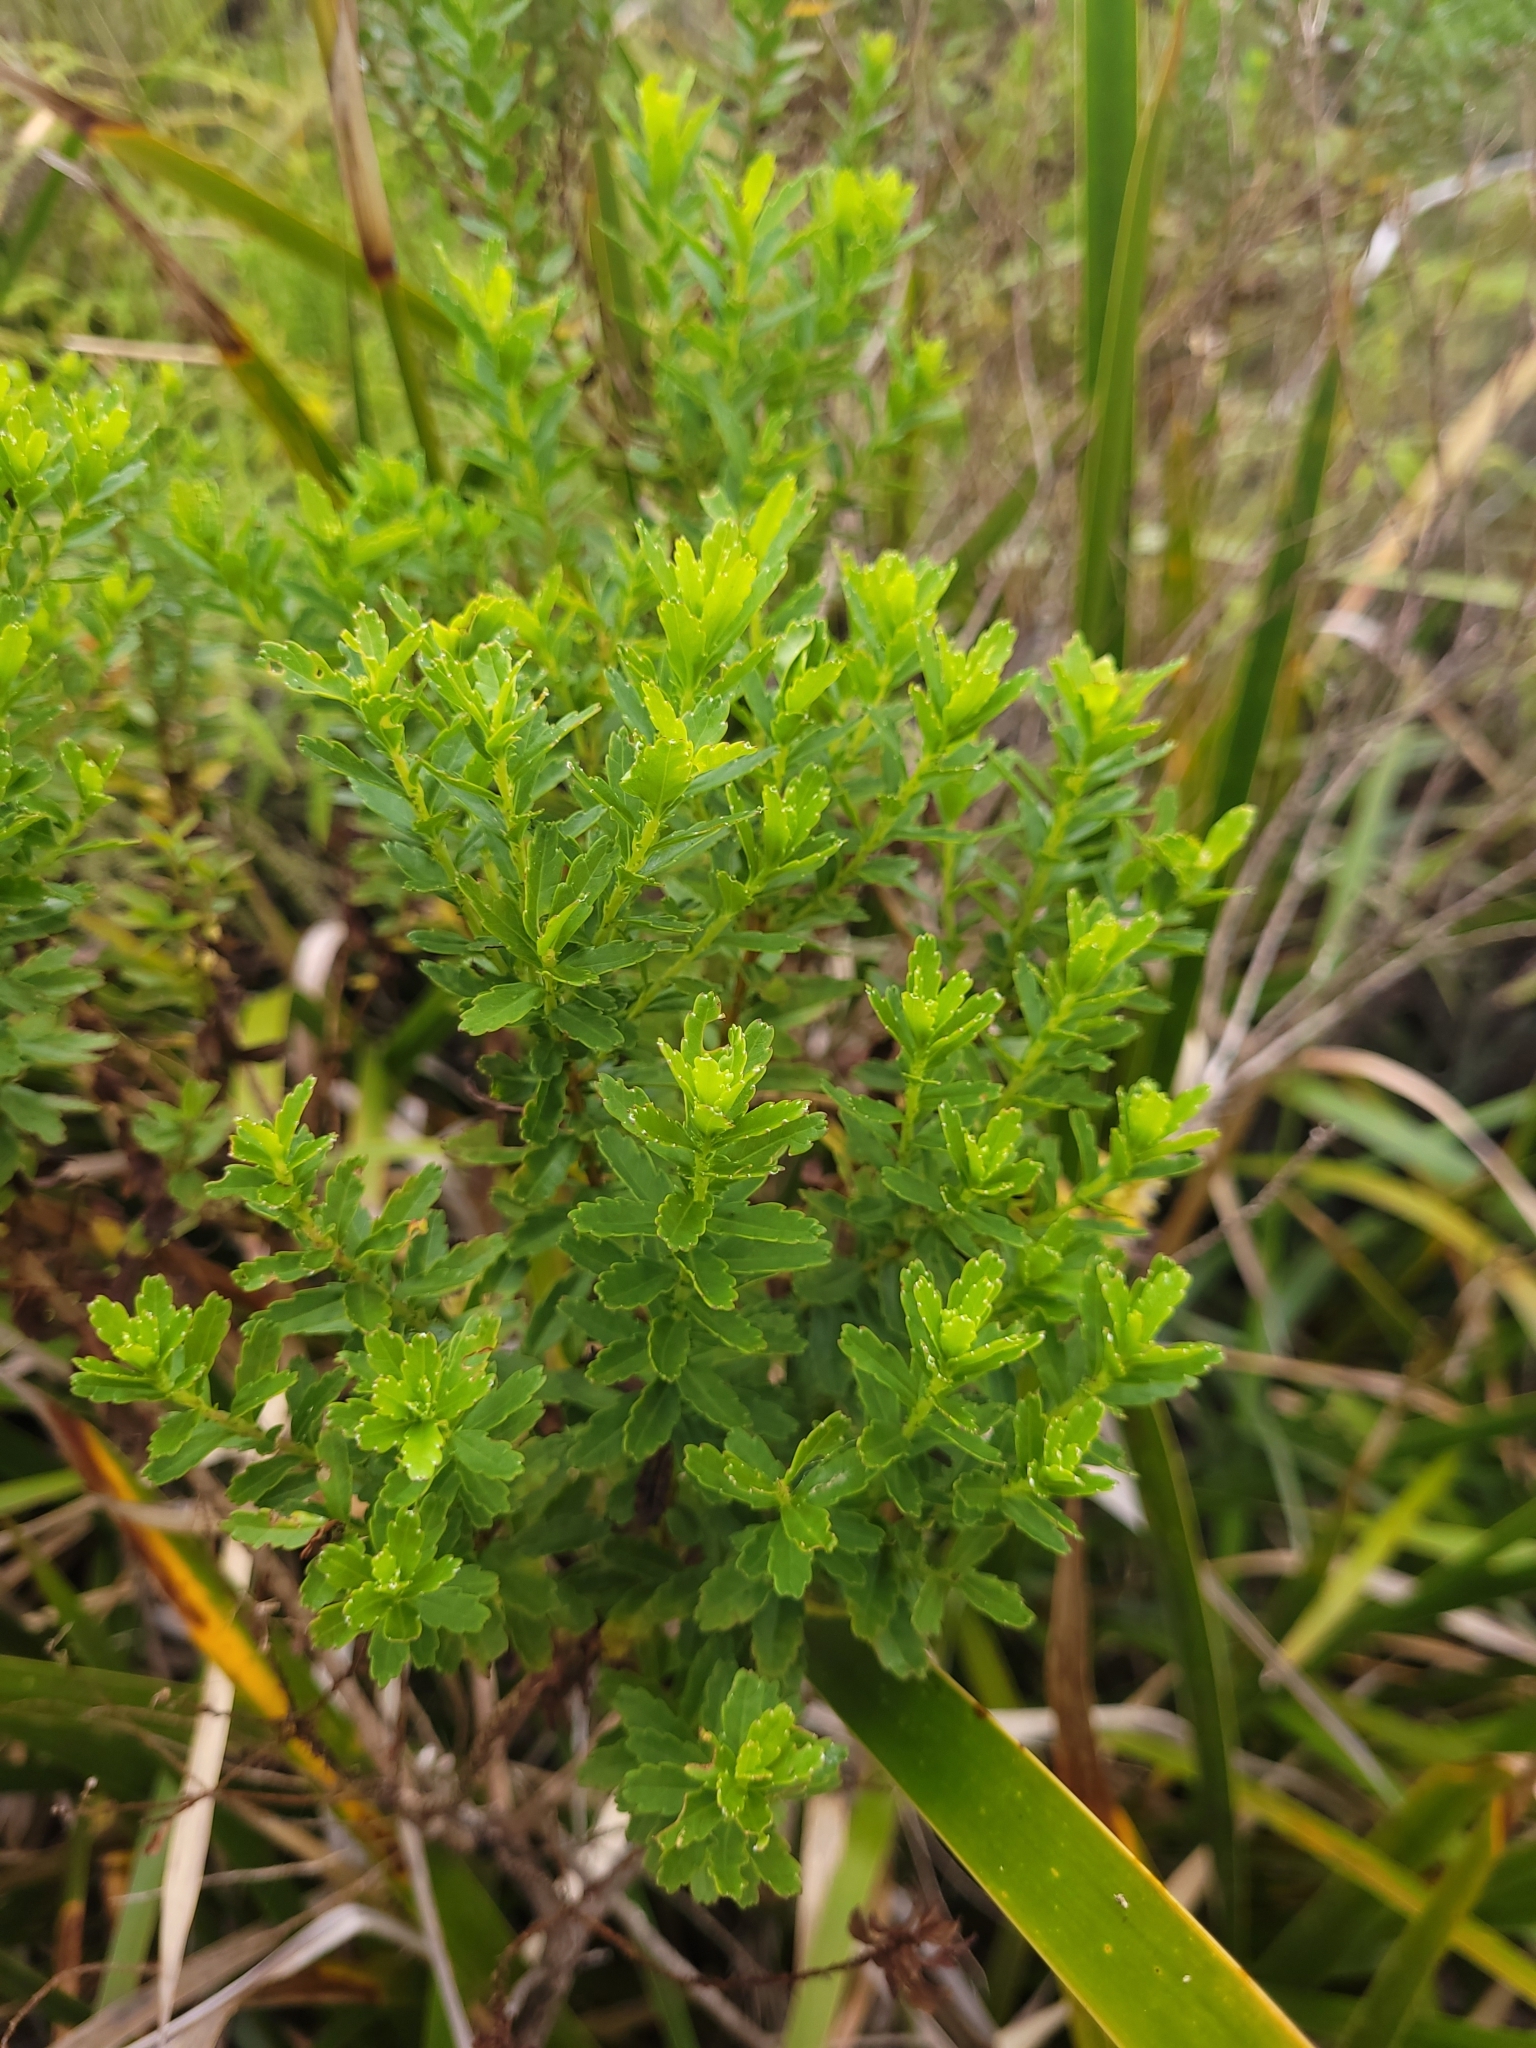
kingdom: Plantae
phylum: Tracheophyta
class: Magnoliopsida
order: Asterales
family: Asteraceae
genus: Hubertia
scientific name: Hubertia ambavilla
